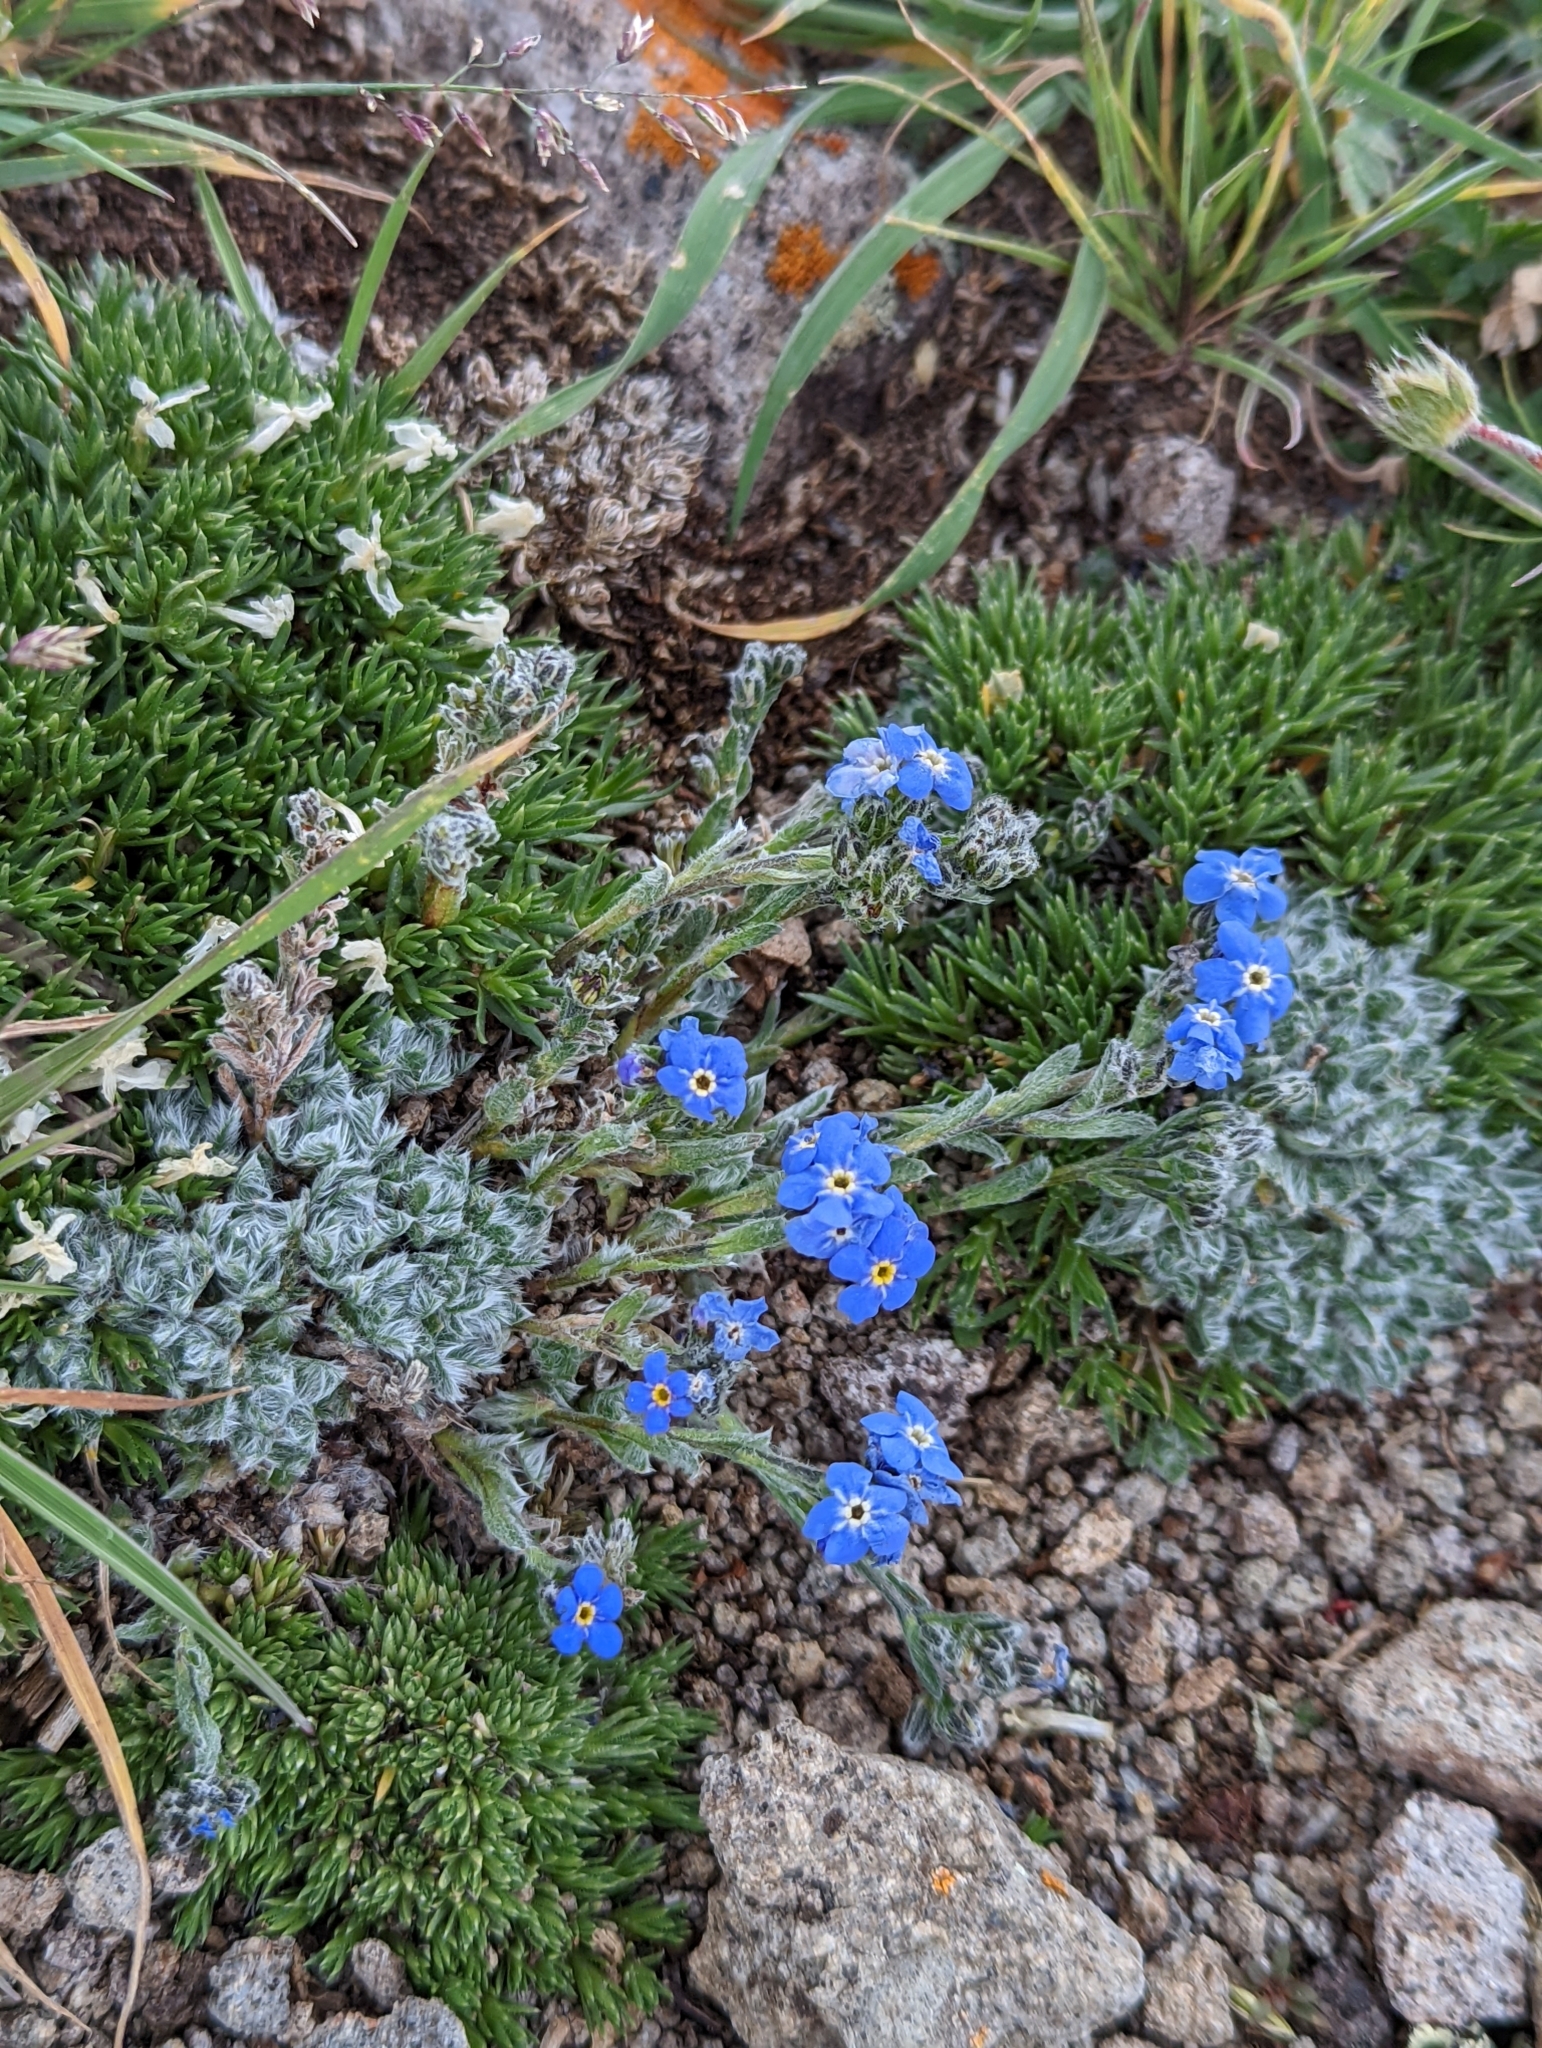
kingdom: Plantae
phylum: Tracheophyta
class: Magnoliopsida
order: Boraginales
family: Boraginaceae
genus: Eritrichium
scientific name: Eritrichium argenteum
